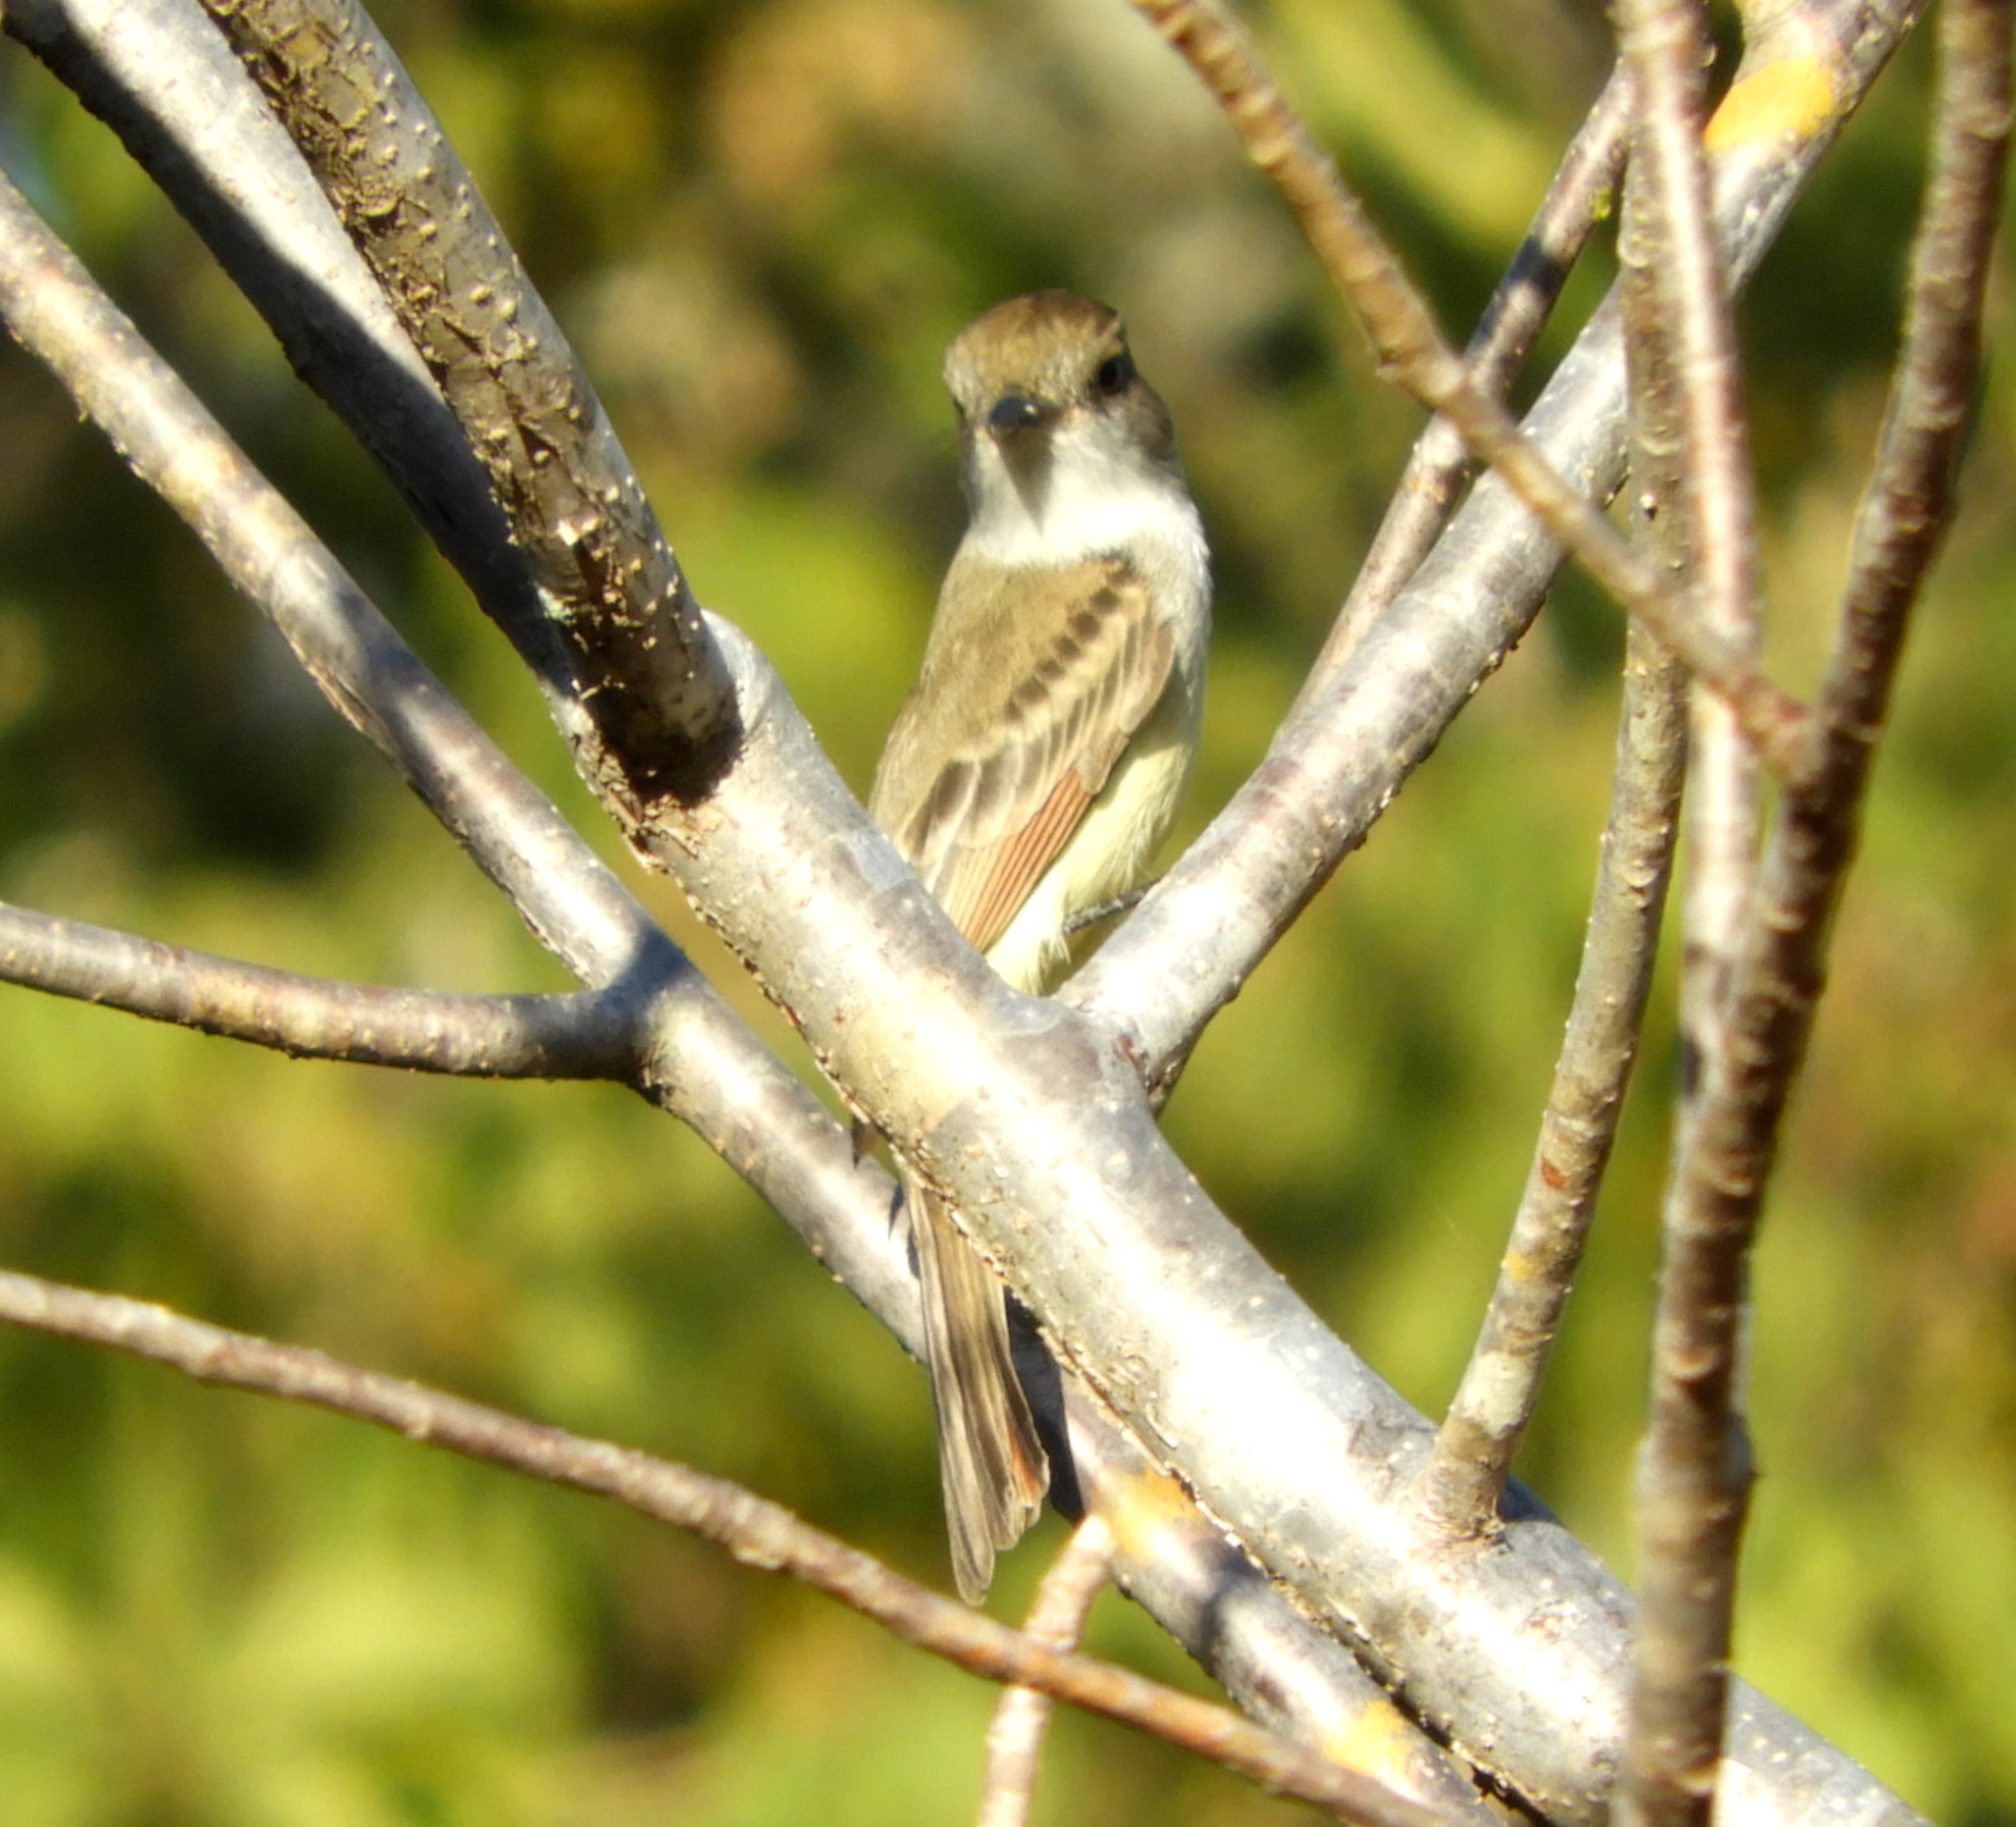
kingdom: Animalia
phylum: Chordata
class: Aves
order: Passeriformes
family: Tyrannidae
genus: Myiarchus
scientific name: Myiarchus
